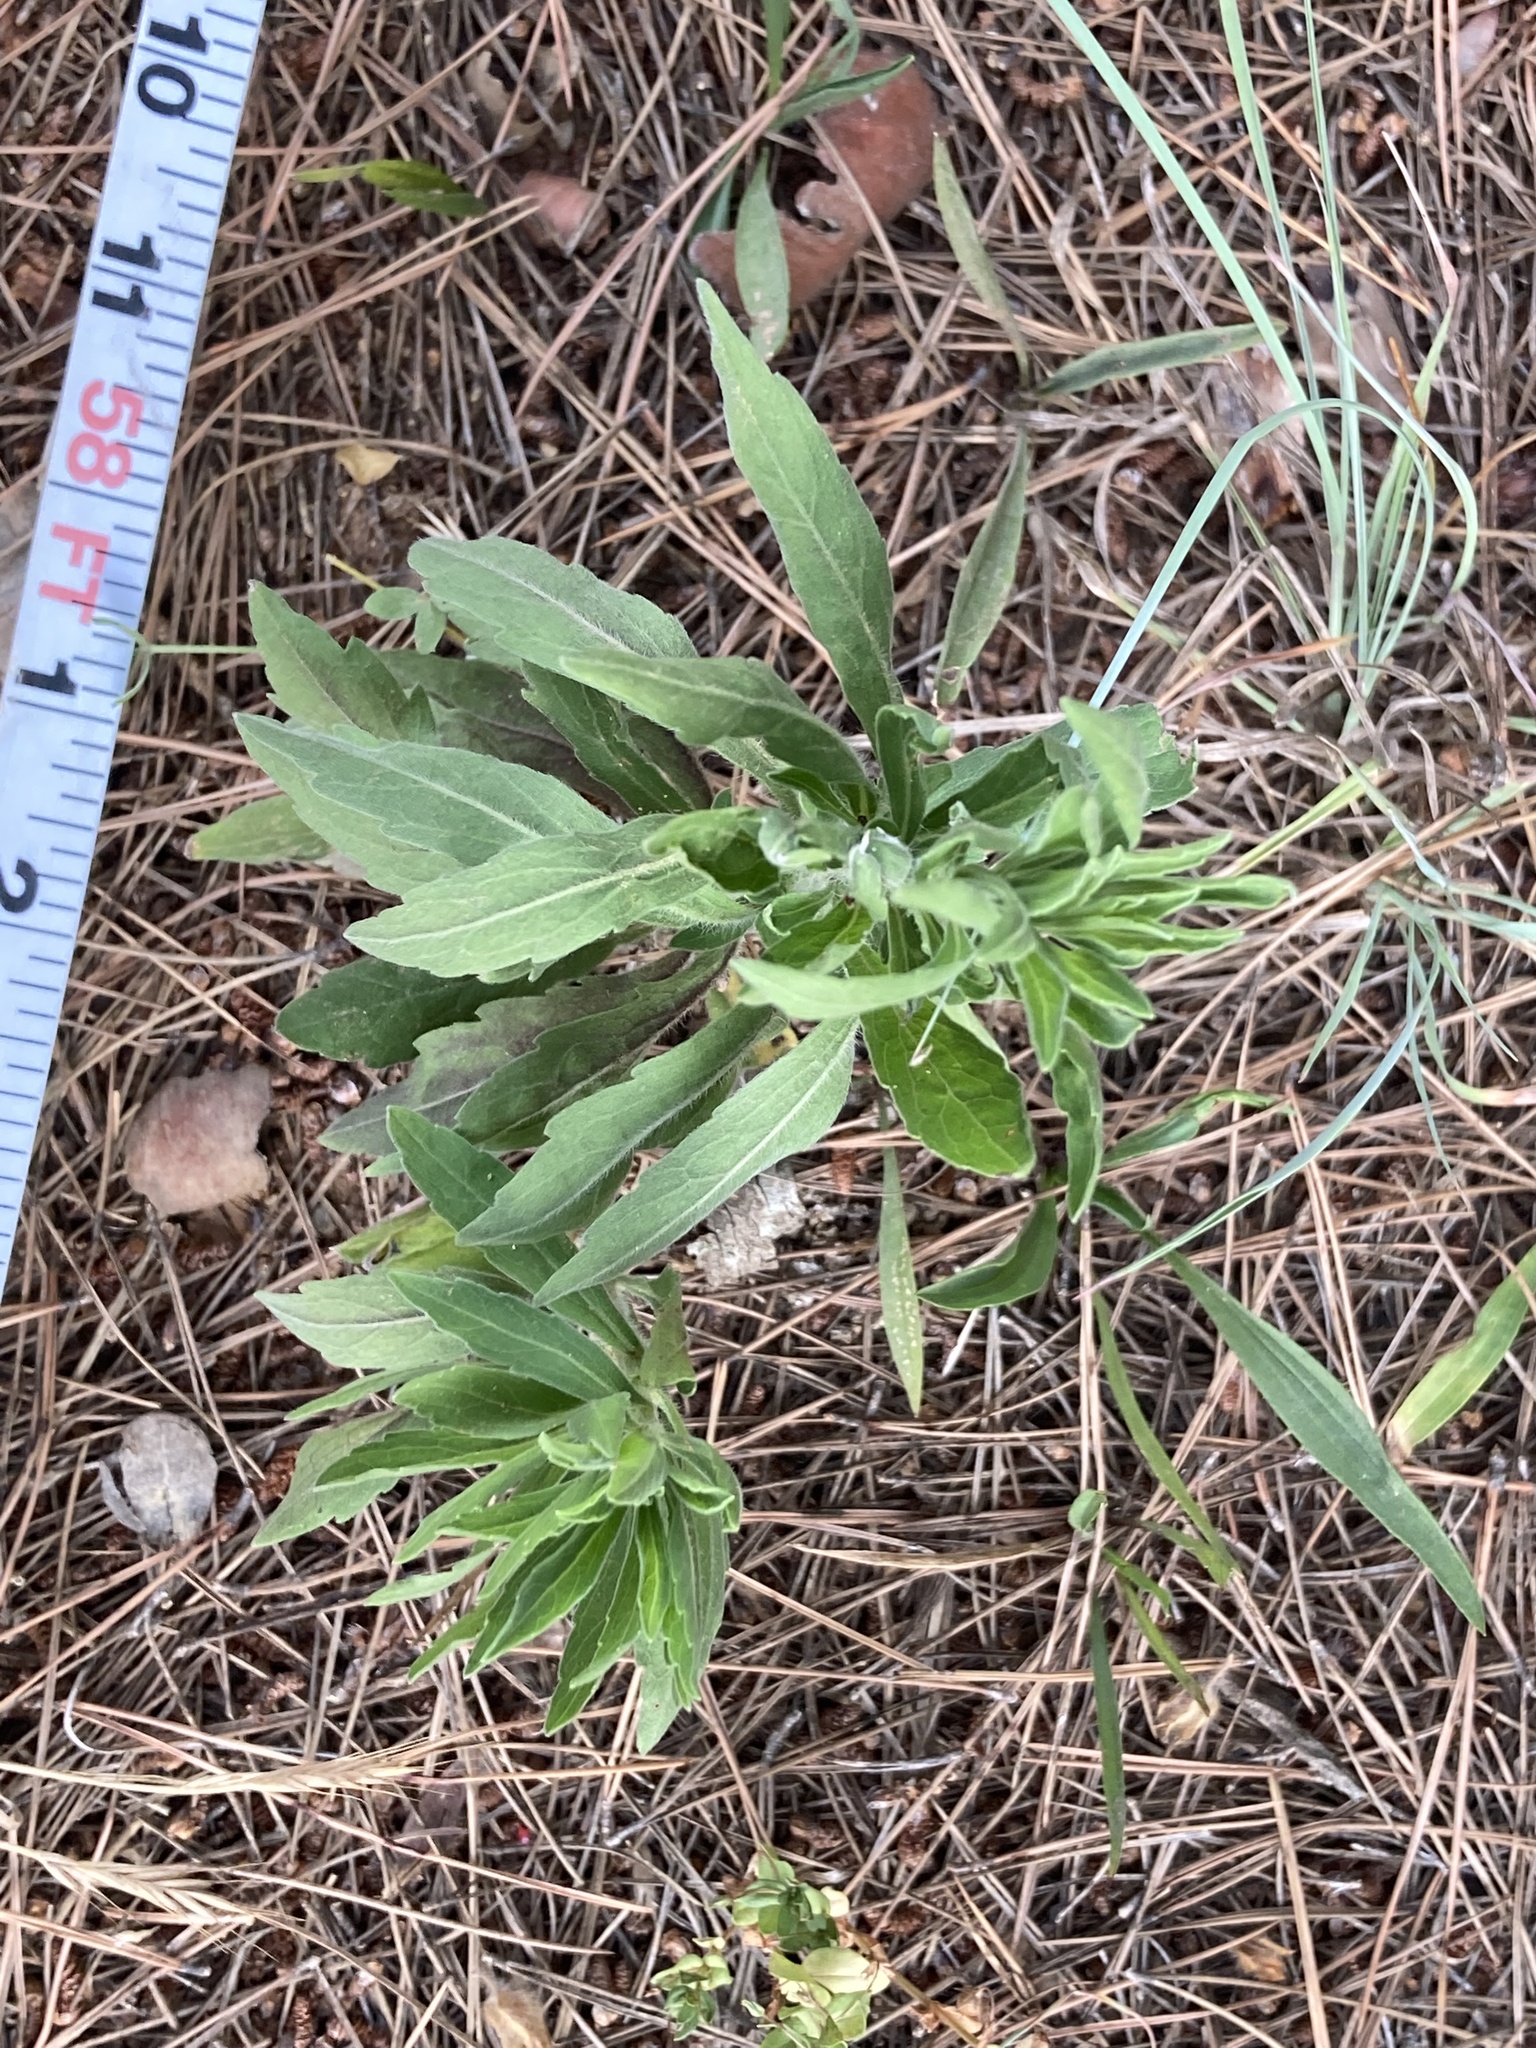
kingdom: Plantae
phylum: Tracheophyta
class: Magnoliopsida
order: Asterales
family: Asteraceae
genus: Erigeron
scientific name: Erigeron sumatrensis
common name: Daisy
